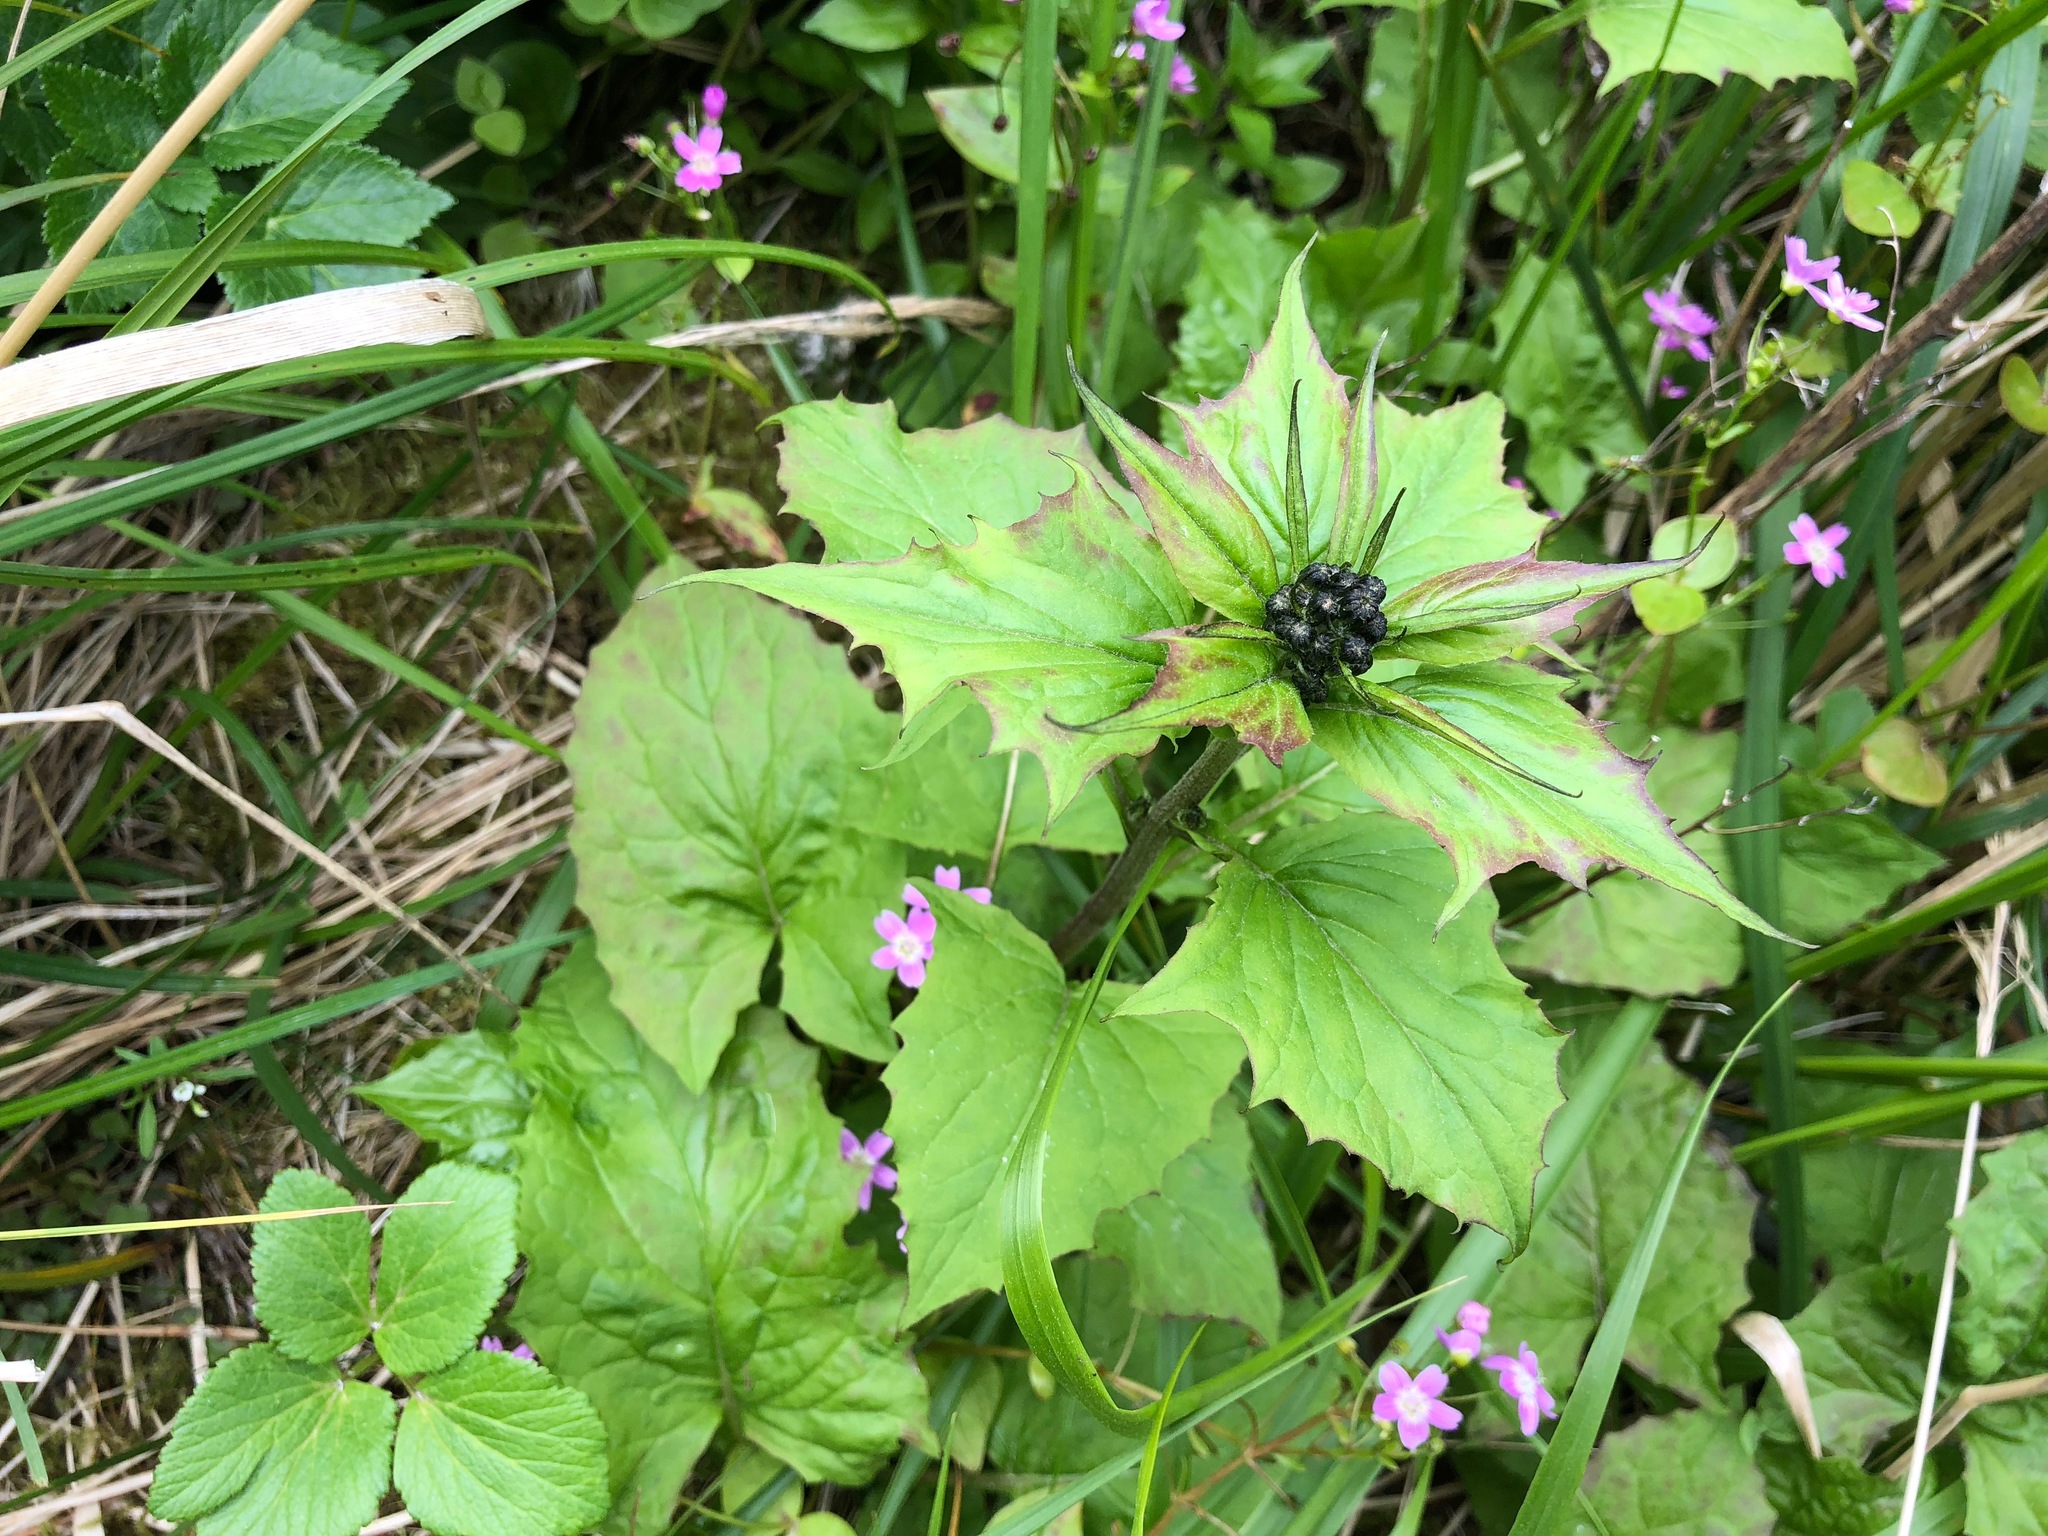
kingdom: Plantae
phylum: Tracheophyta
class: Magnoliopsida
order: Asterales
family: Asteraceae
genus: Nabalus
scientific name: Nabalus hastatus
